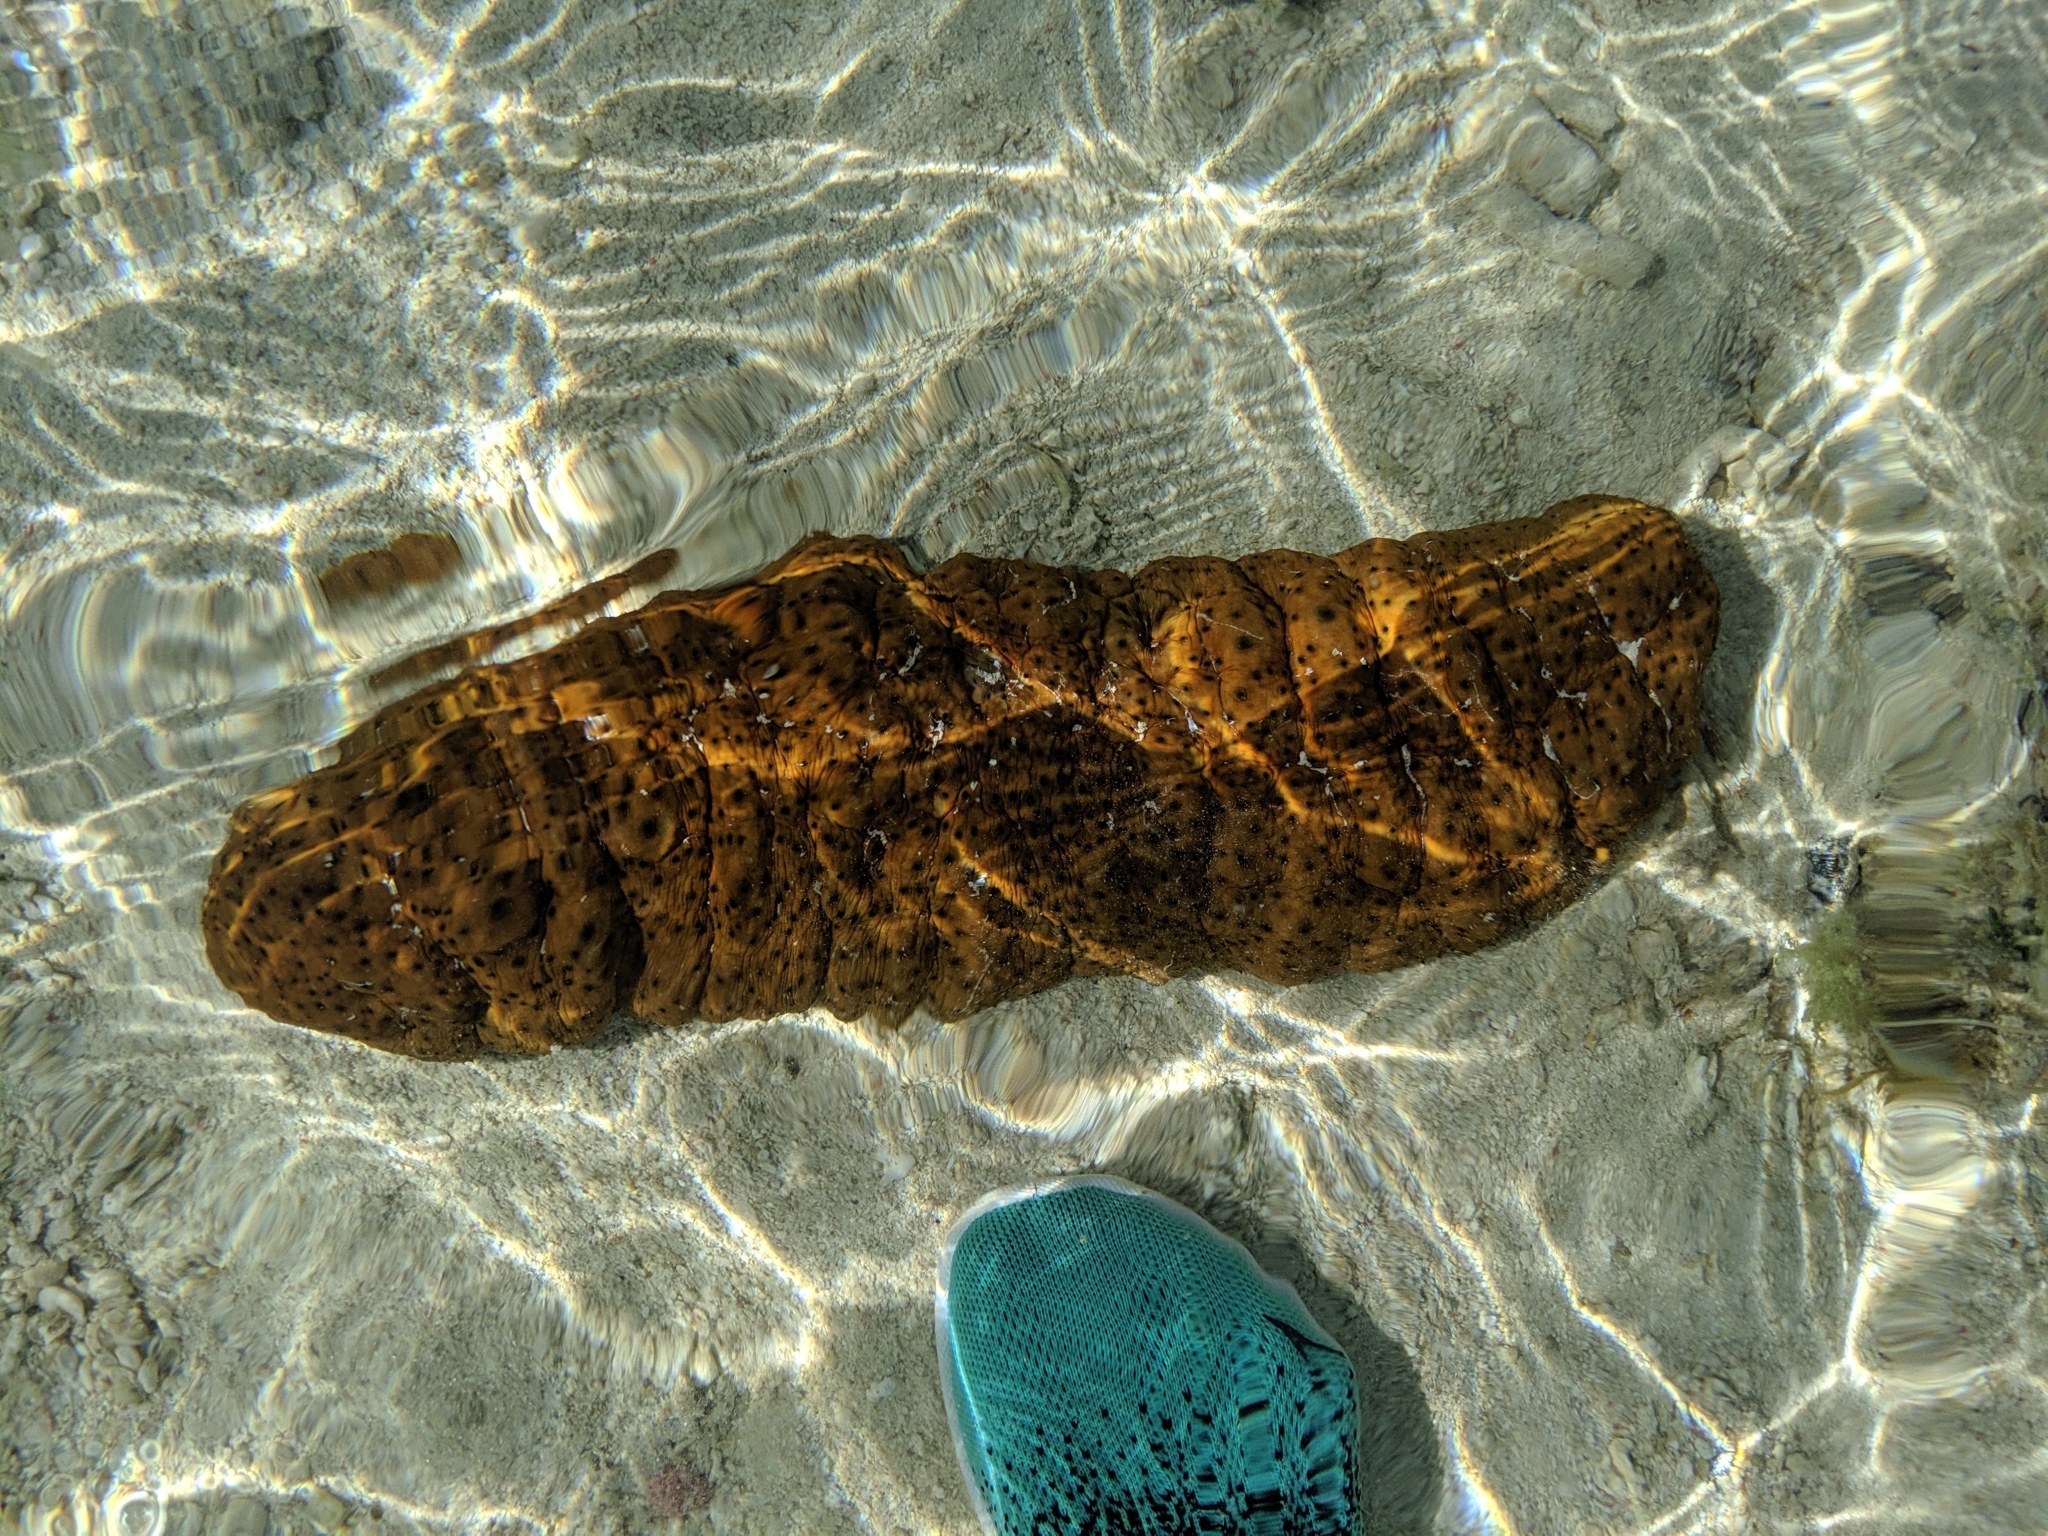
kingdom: Animalia
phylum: Echinodermata
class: Holothuroidea
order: Synallactida
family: Stichopodidae
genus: Stichopus
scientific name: Stichopus herrmanni
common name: Curryfish
